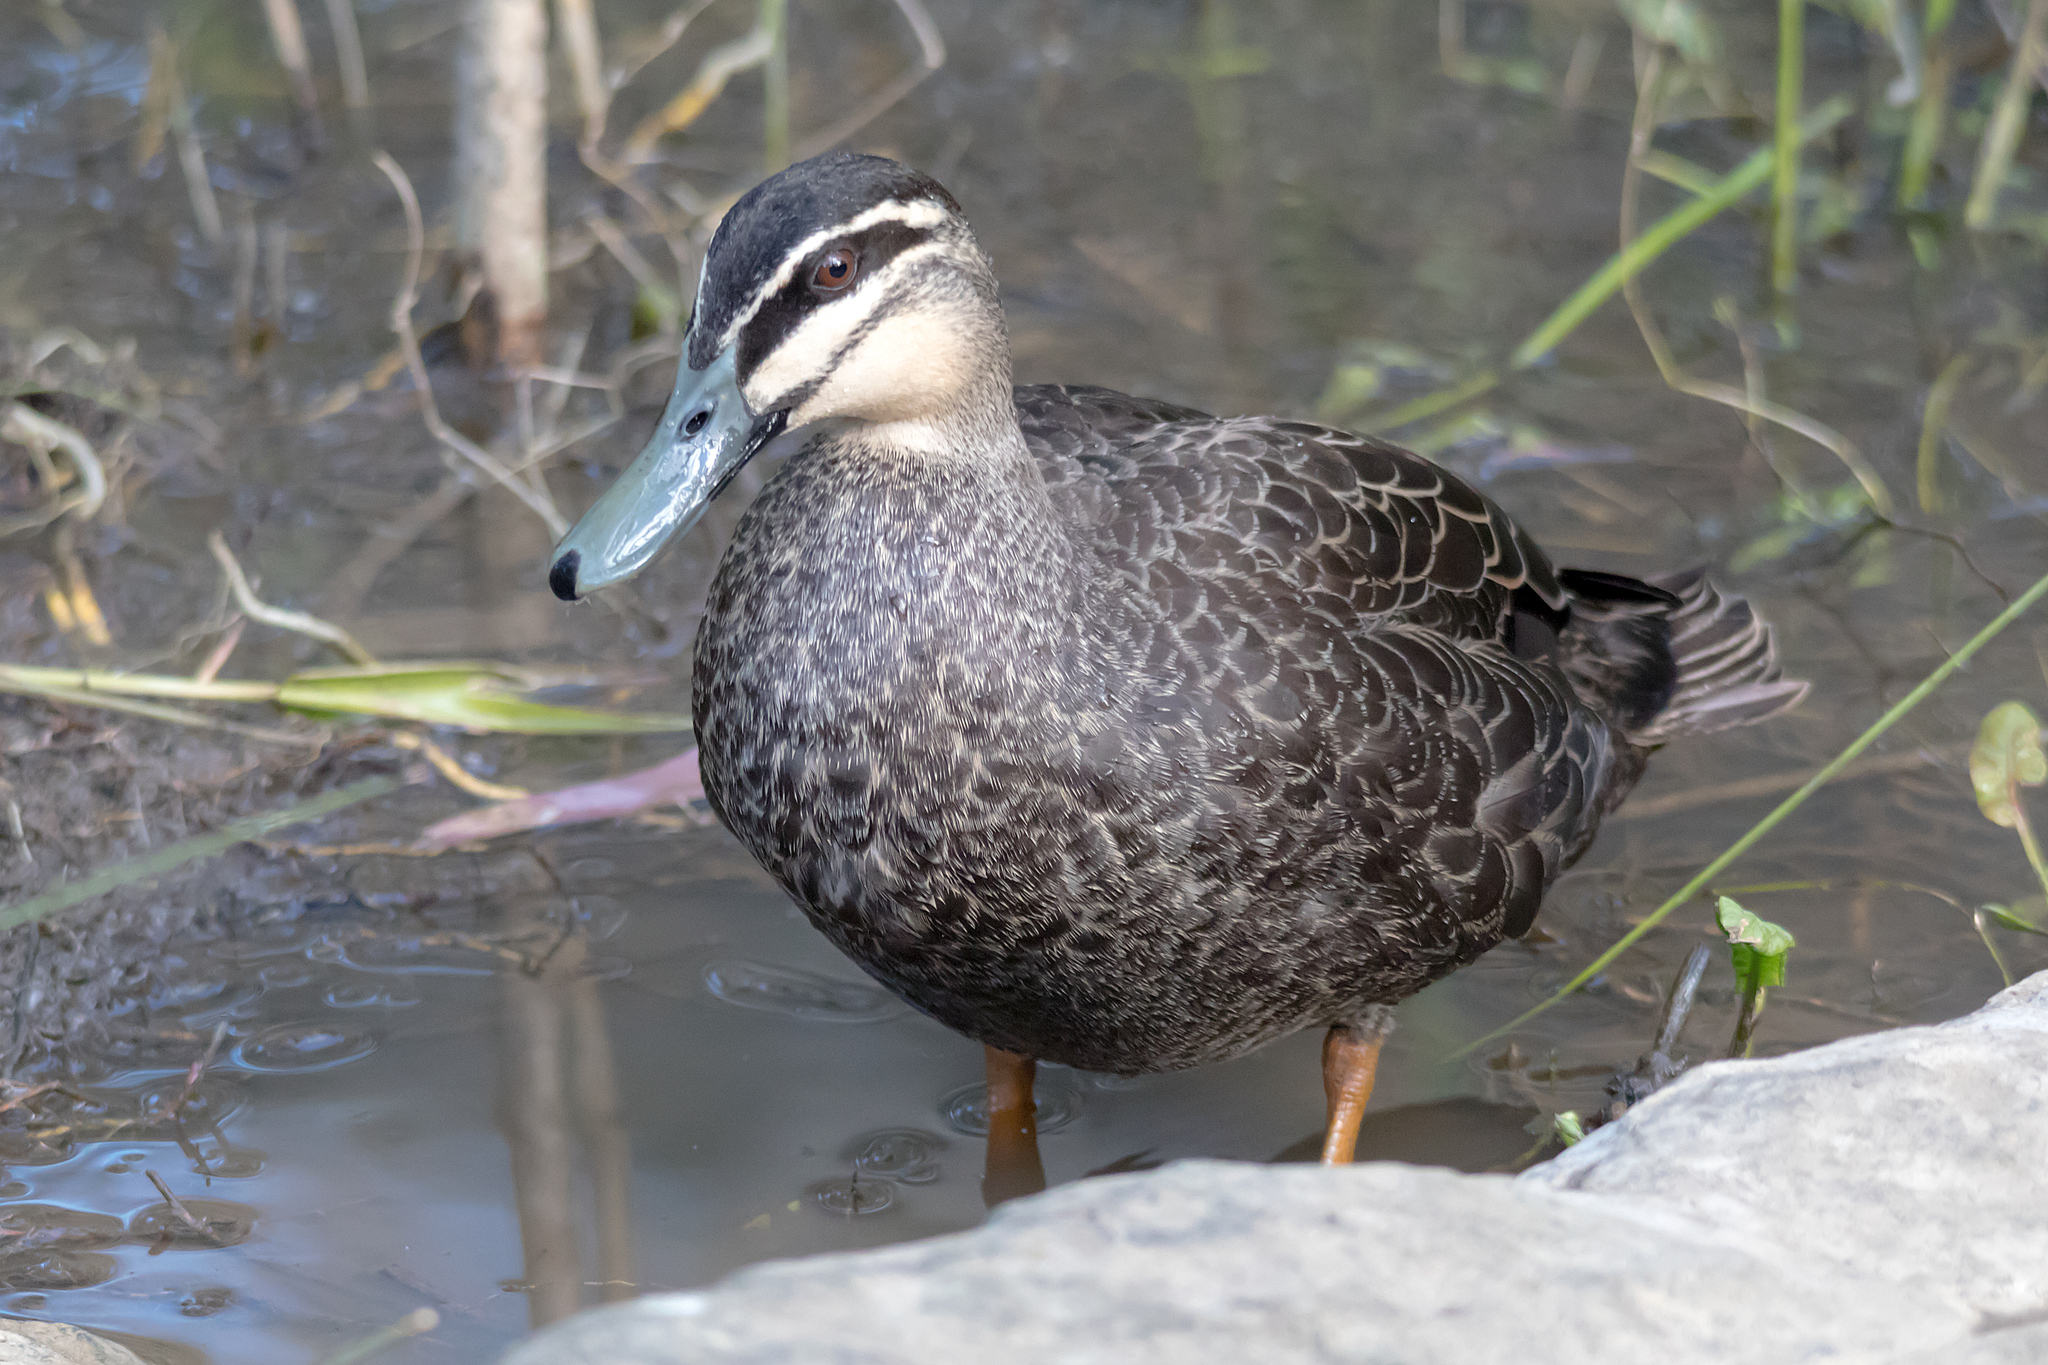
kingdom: Animalia
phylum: Chordata
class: Aves
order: Anseriformes
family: Anatidae
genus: Anas
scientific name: Anas
